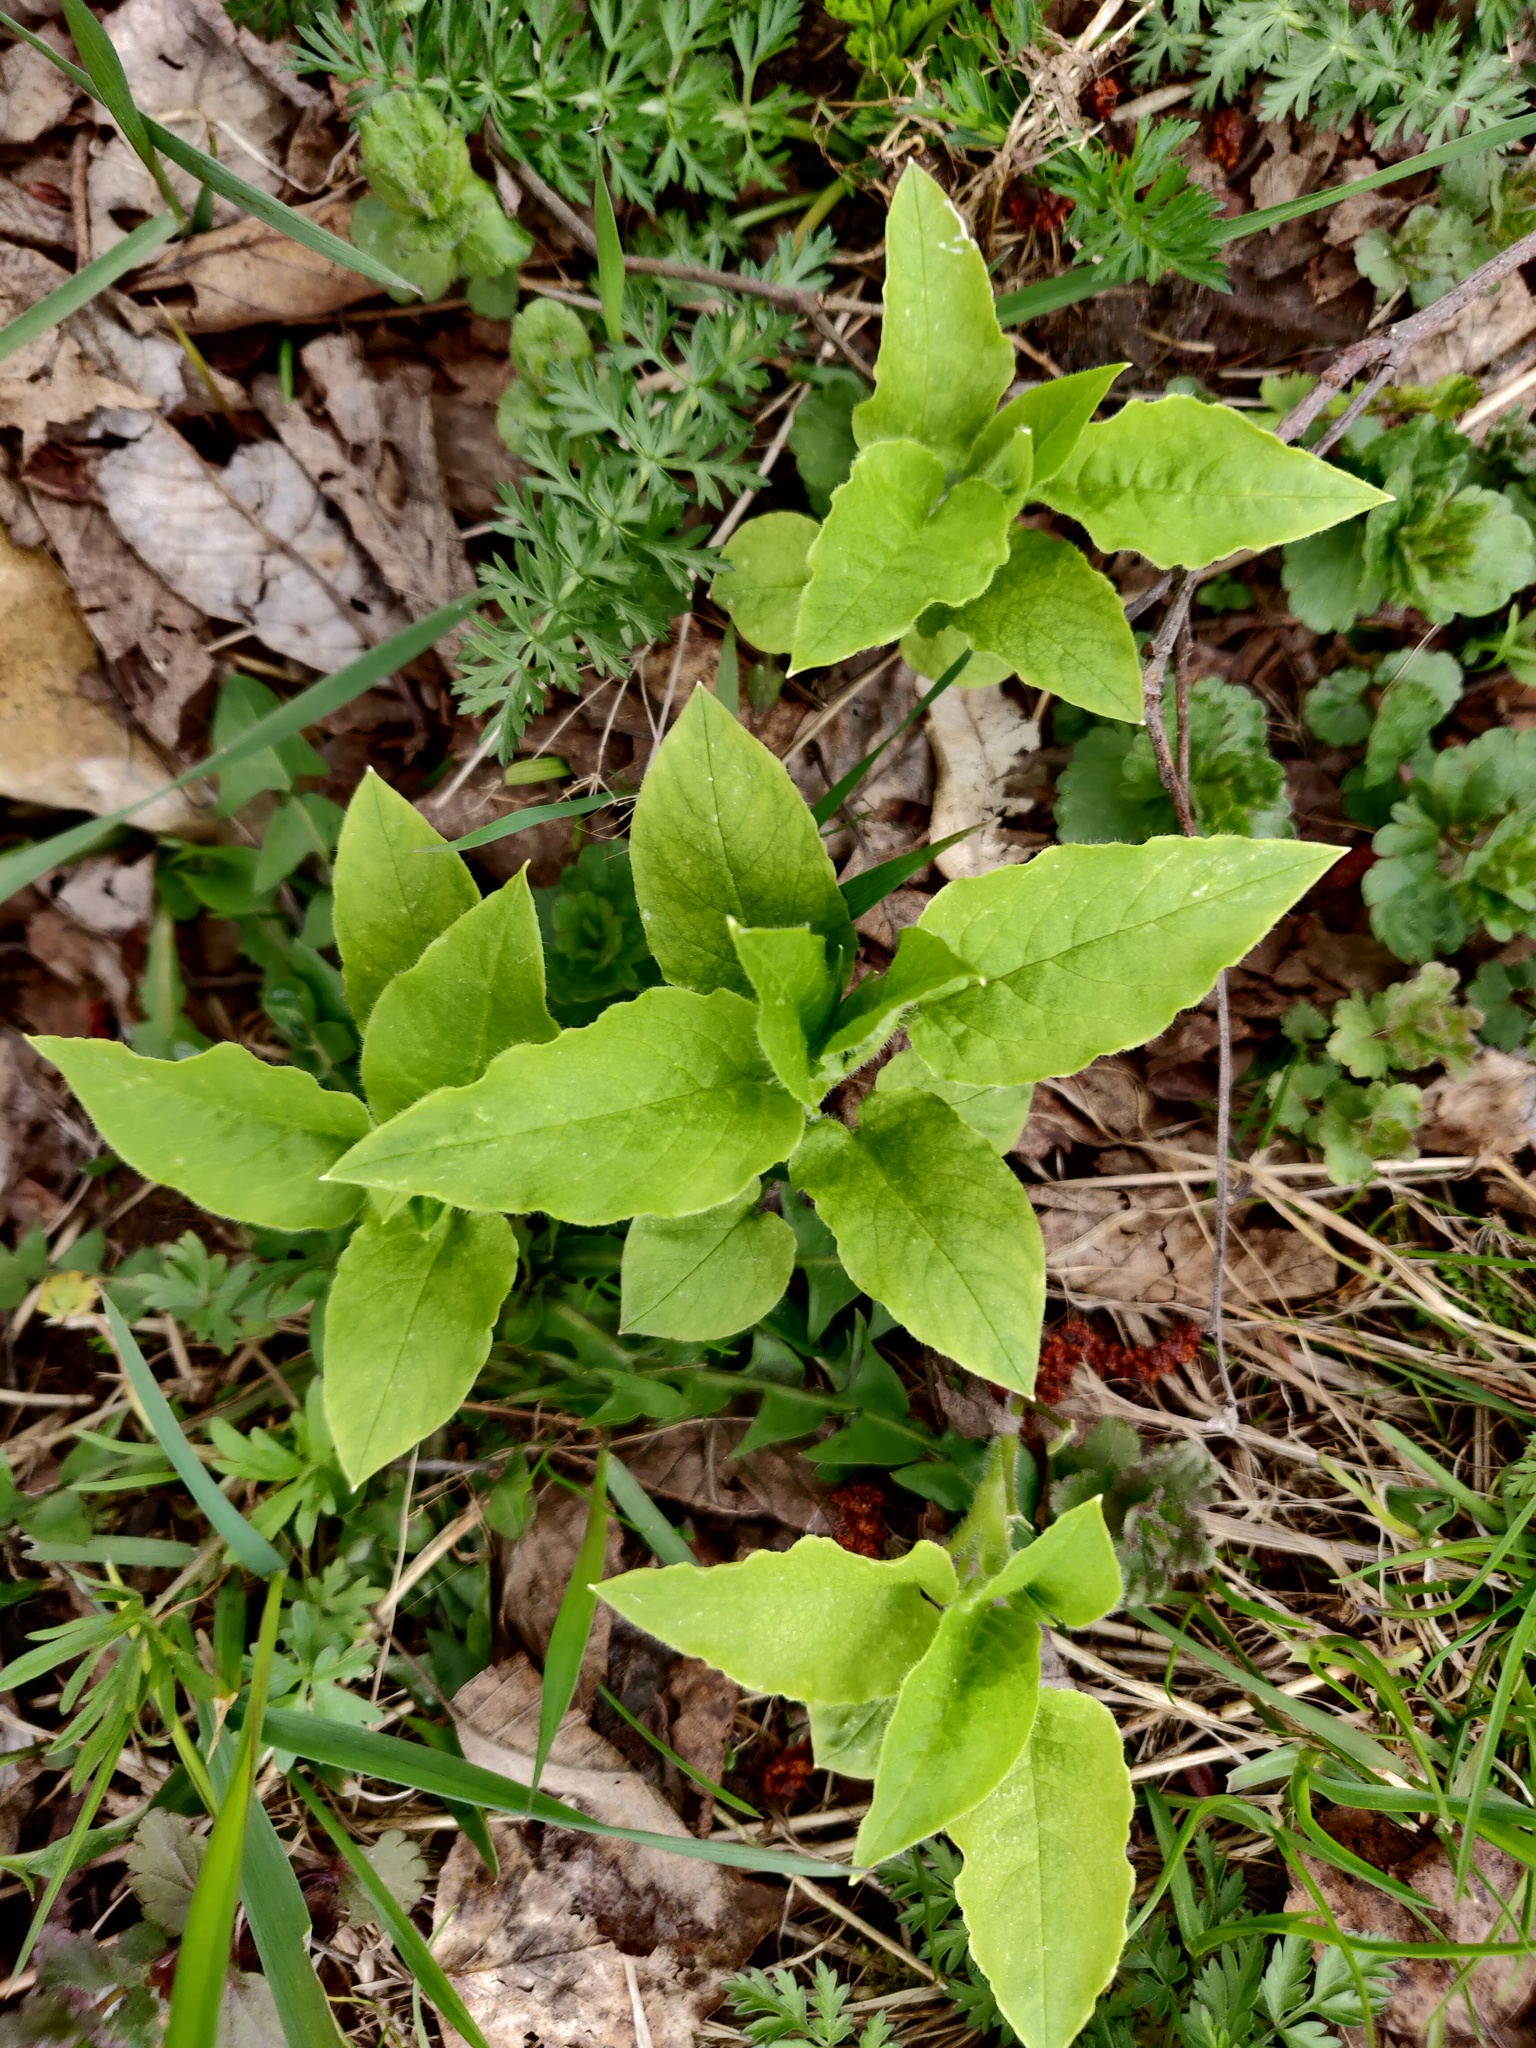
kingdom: Plantae
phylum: Tracheophyta
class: Magnoliopsida
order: Caryophyllales
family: Caryophyllaceae
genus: Stellaria
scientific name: Stellaria nemorum
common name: Wood stitchwort
